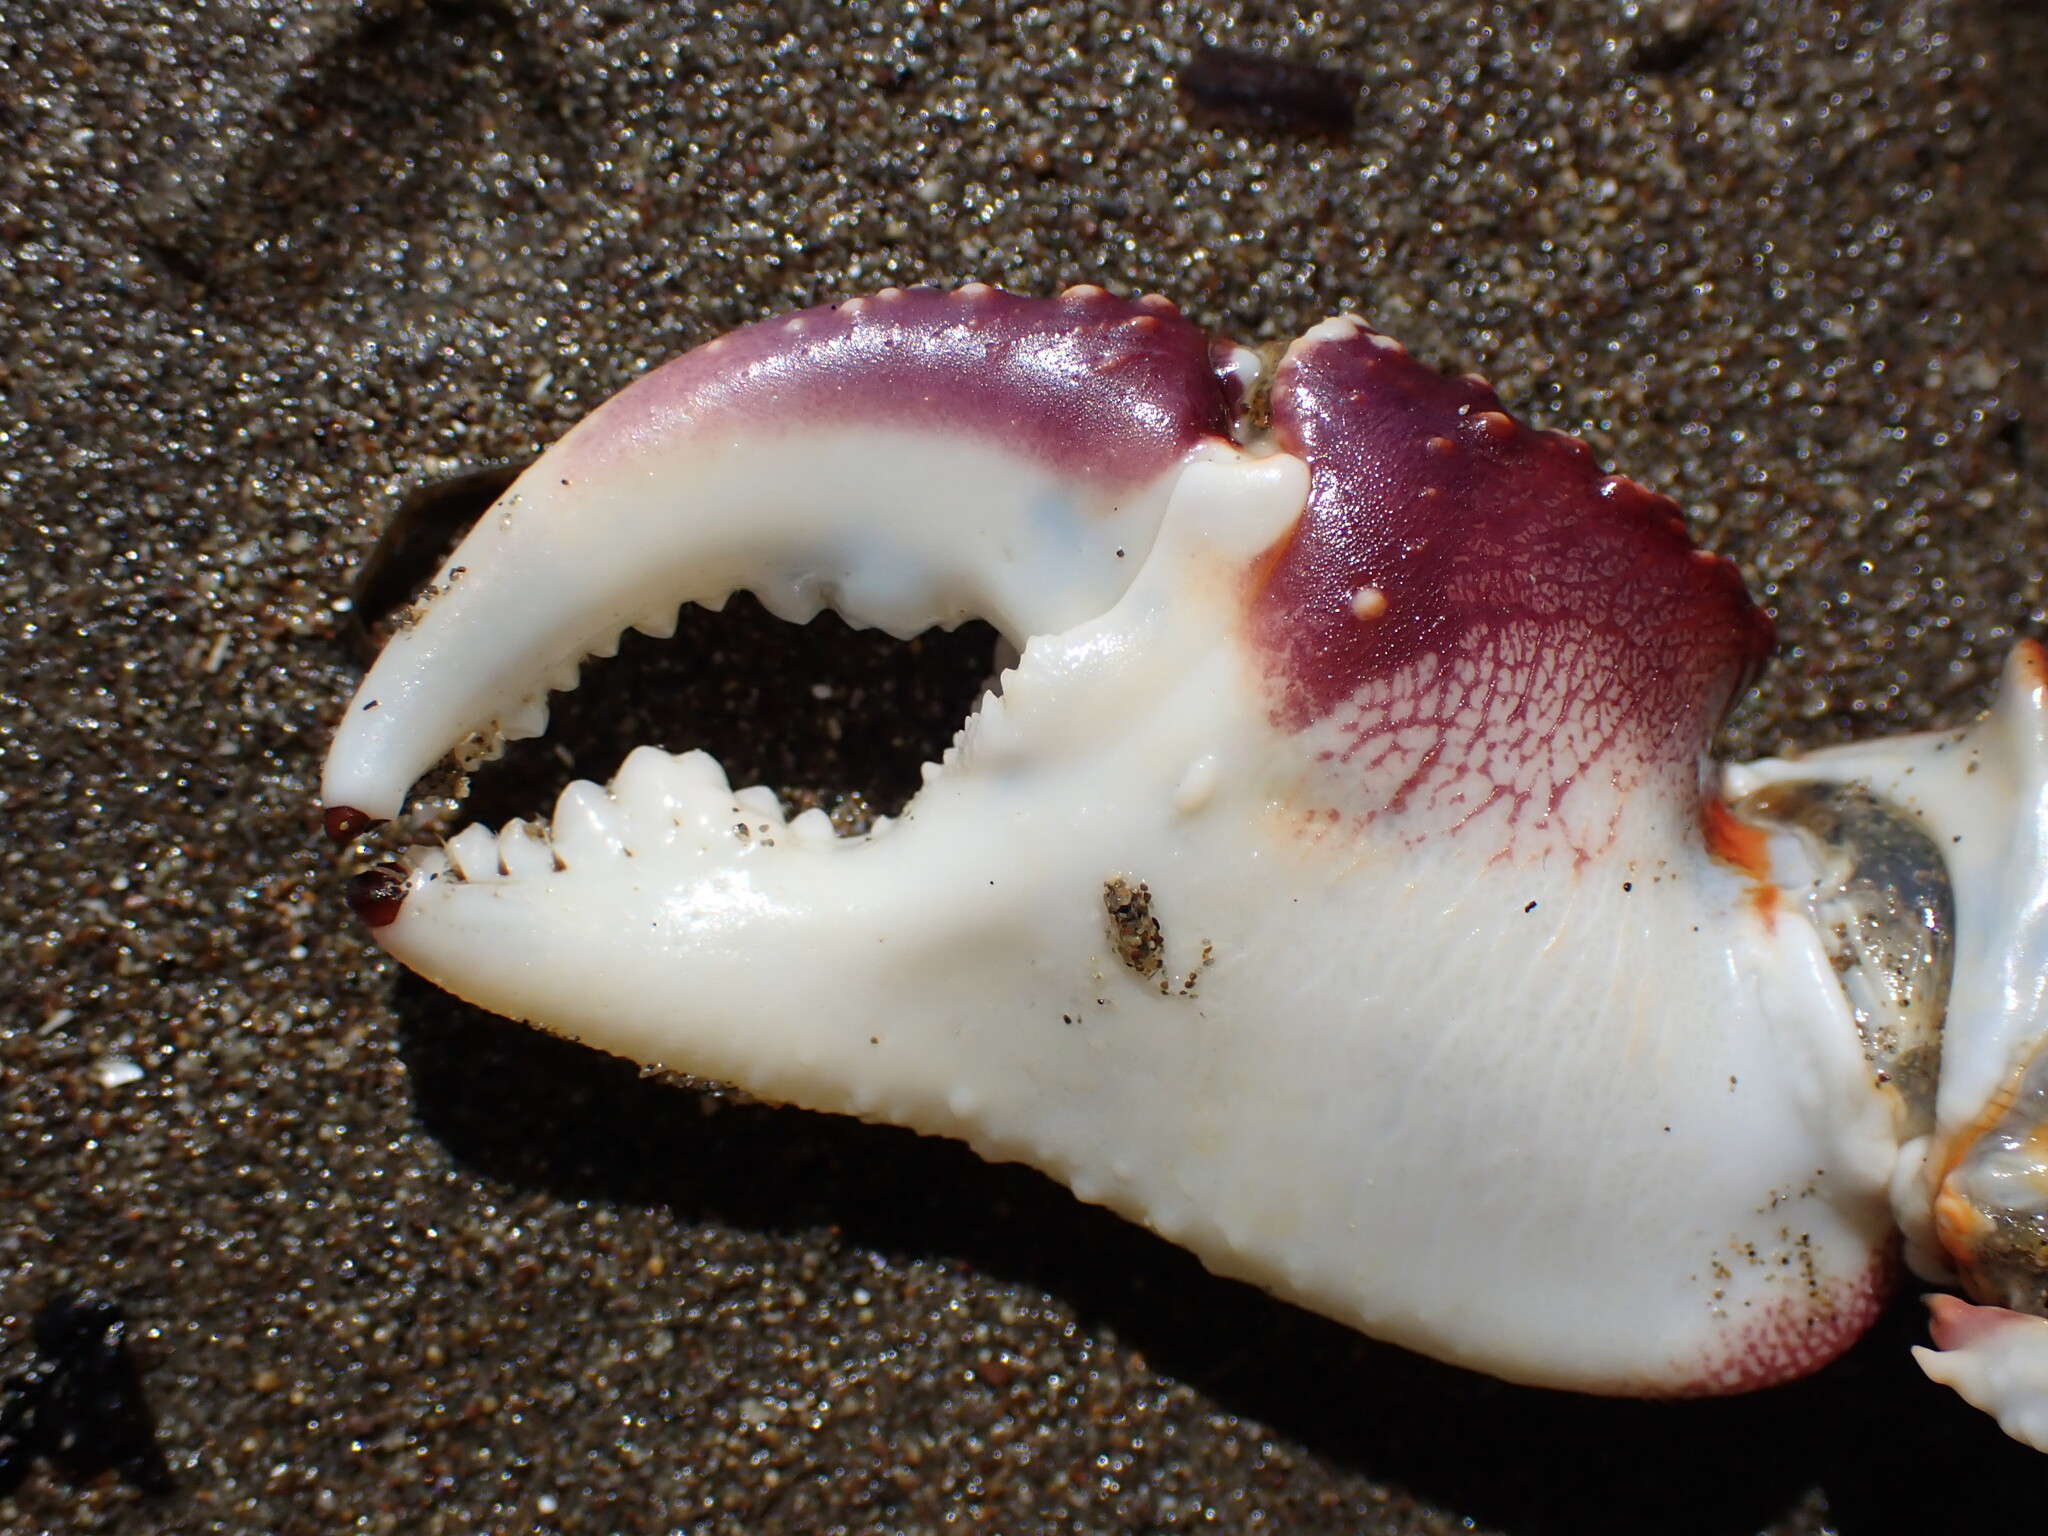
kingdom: Animalia
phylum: Arthropoda
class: Malacostraca
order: Decapoda
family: Grapsidae
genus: Leptograpsus
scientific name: Leptograpsus variegatus
